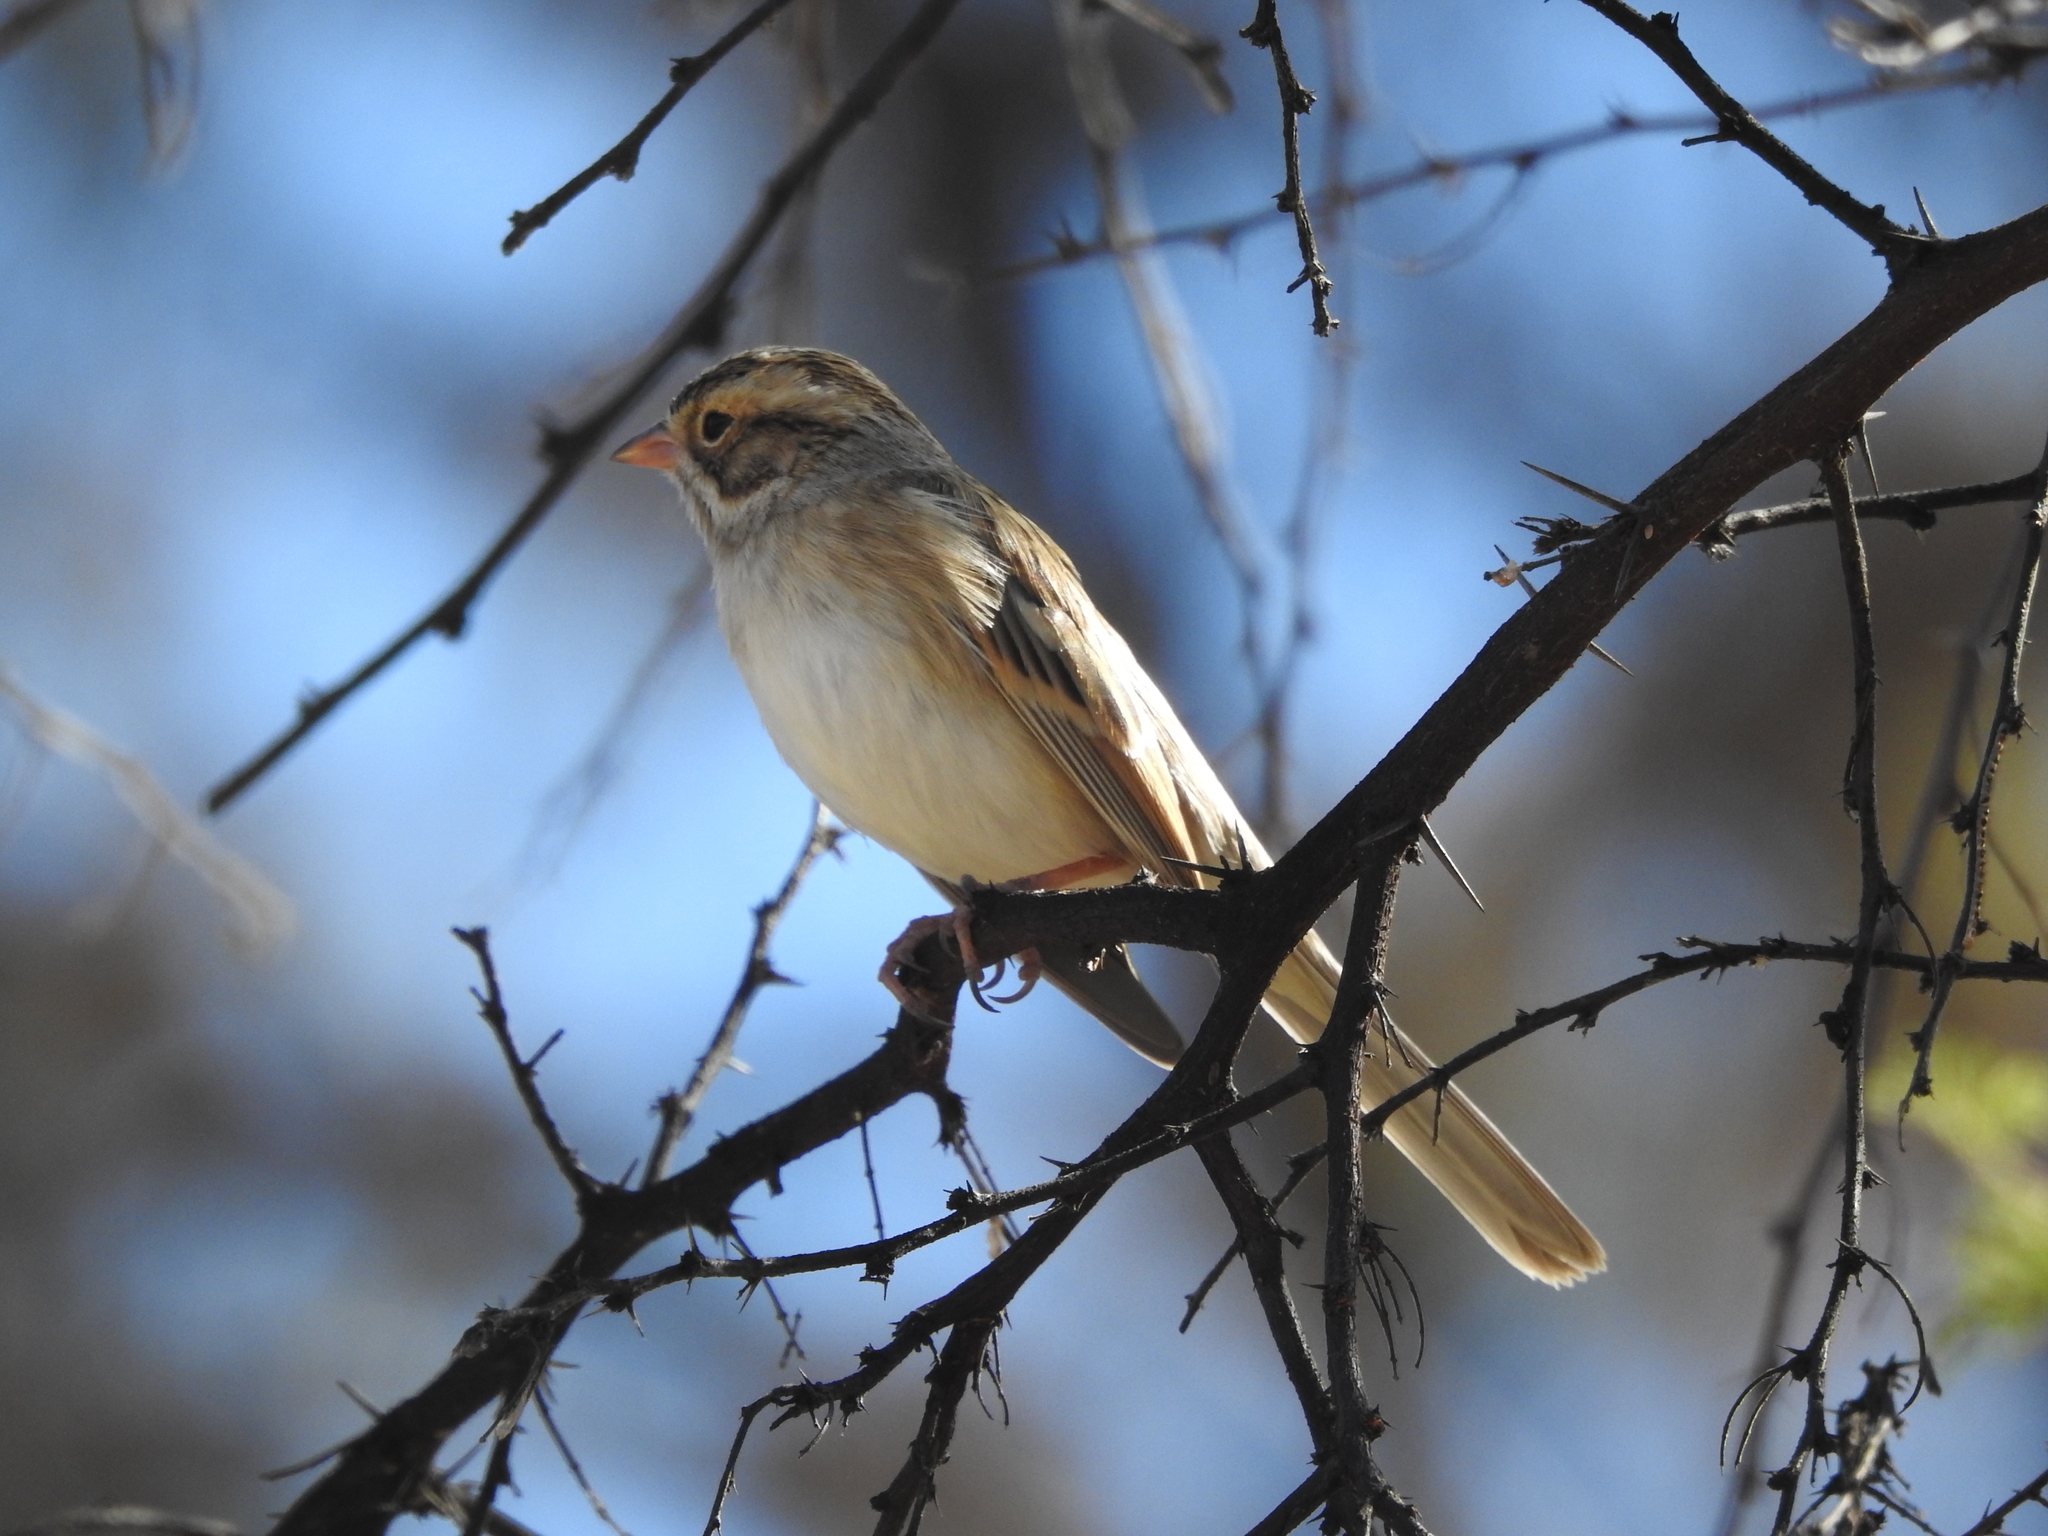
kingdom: Animalia
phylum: Chordata
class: Aves
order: Passeriformes
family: Passerellidae
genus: Spizella
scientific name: Spizella pallida
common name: Clay-colored sparrow
